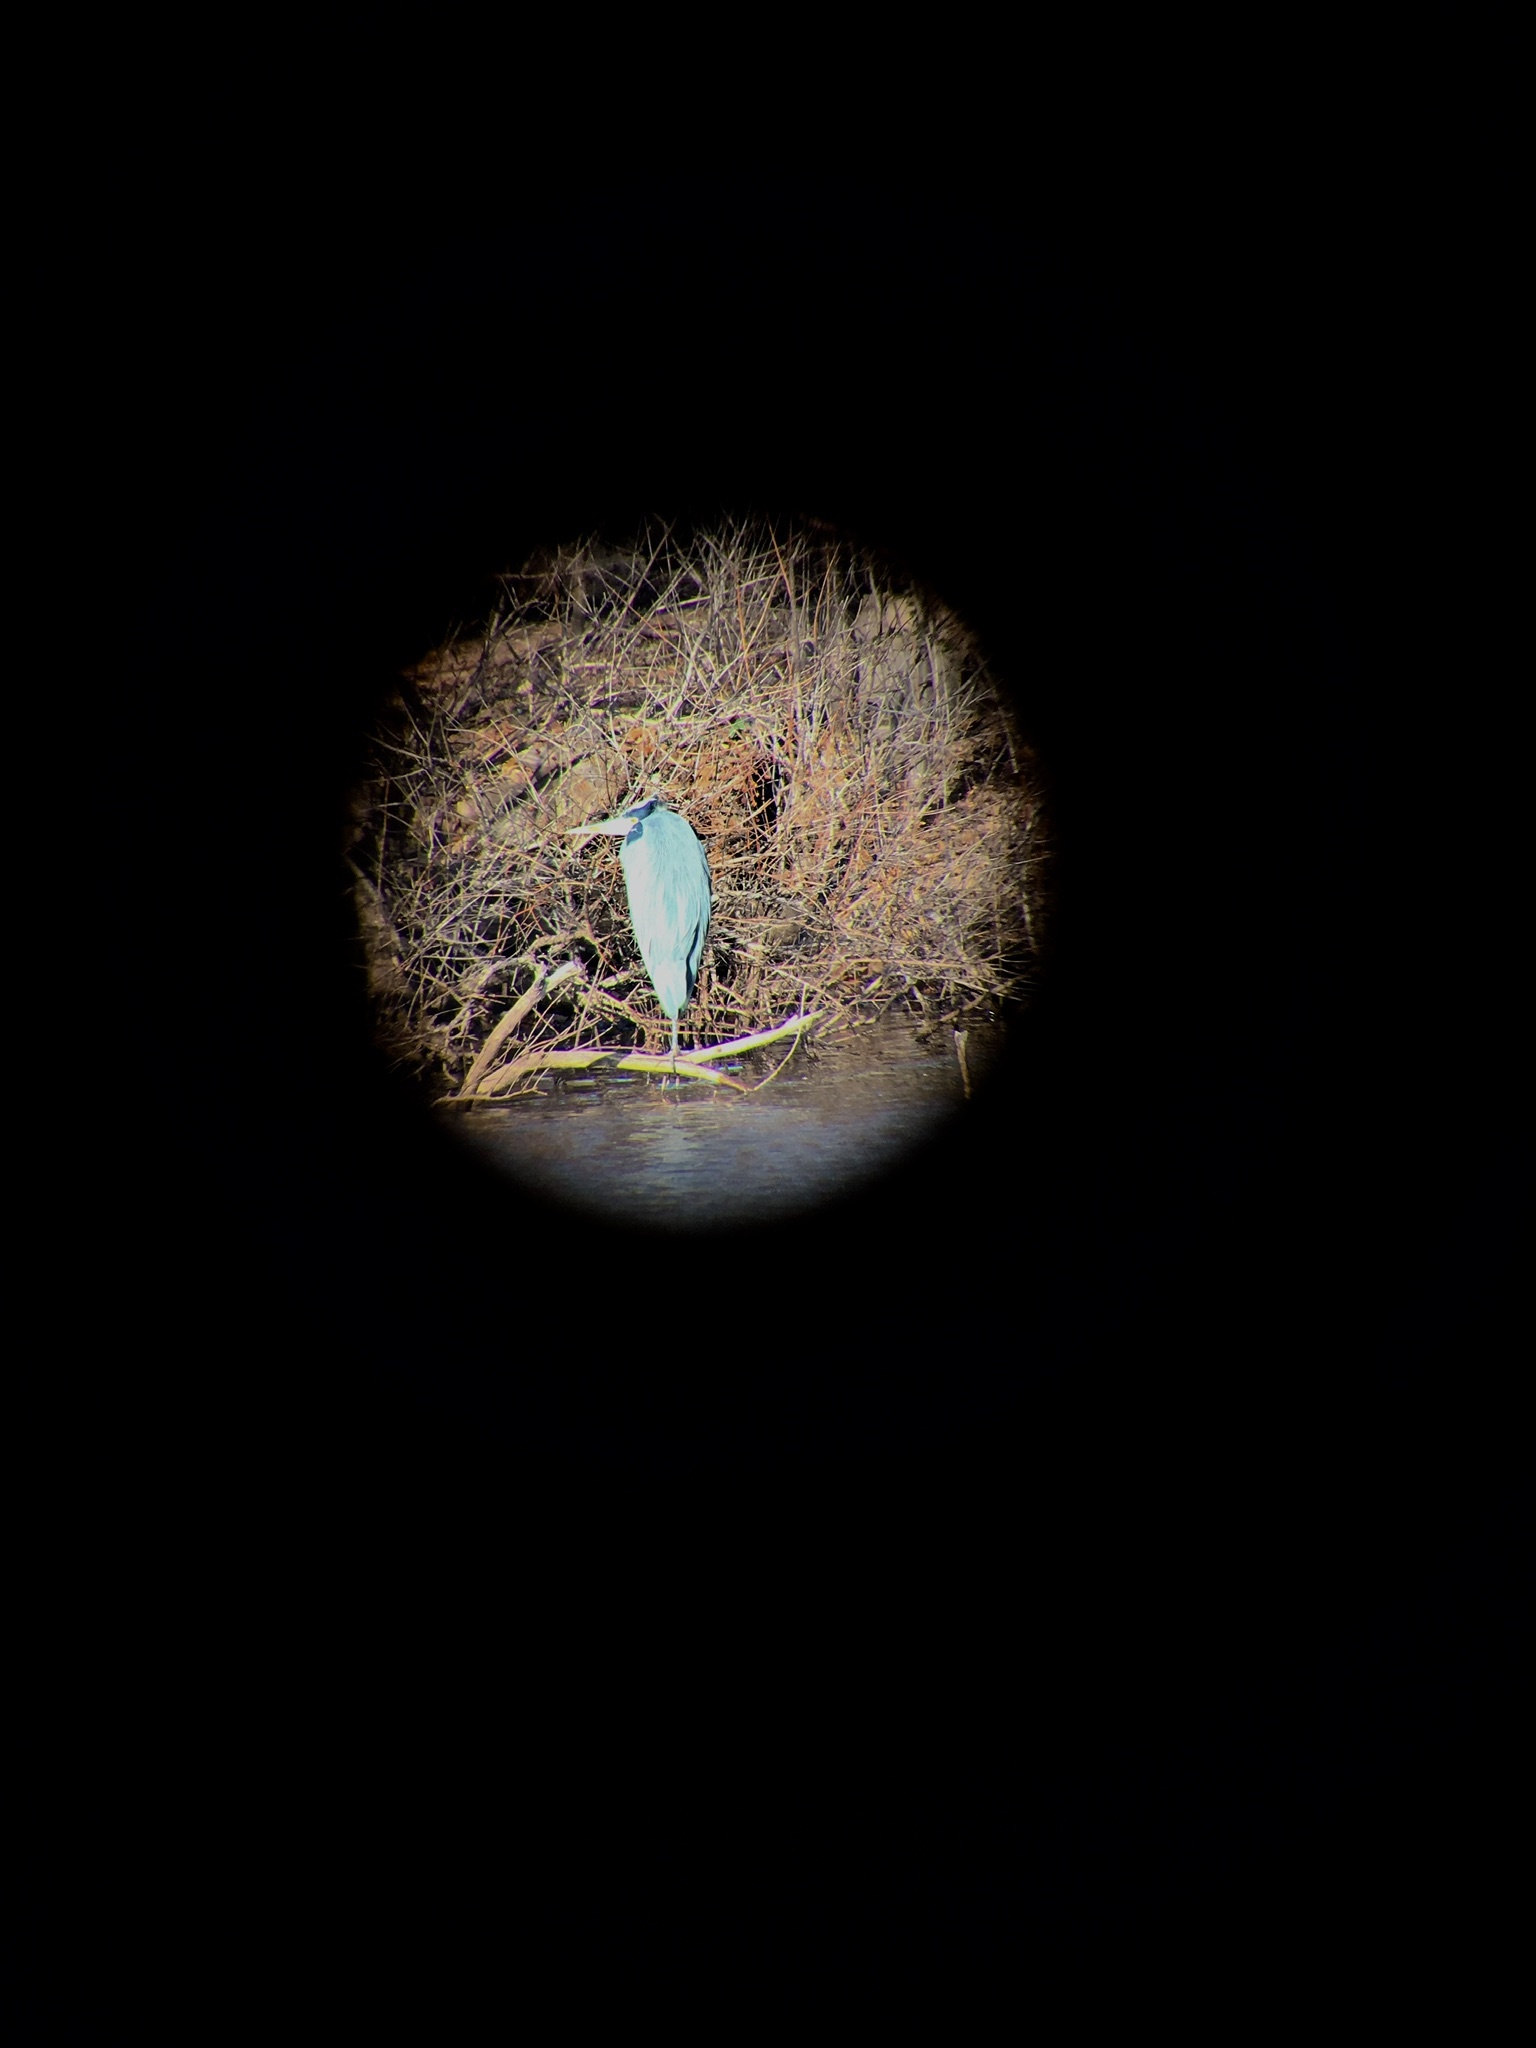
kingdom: Animalia
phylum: Chordata
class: Aves
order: Pelecaniformes
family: Ardeidae
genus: Ardea
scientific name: Ardea herodias
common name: Great blue heron
